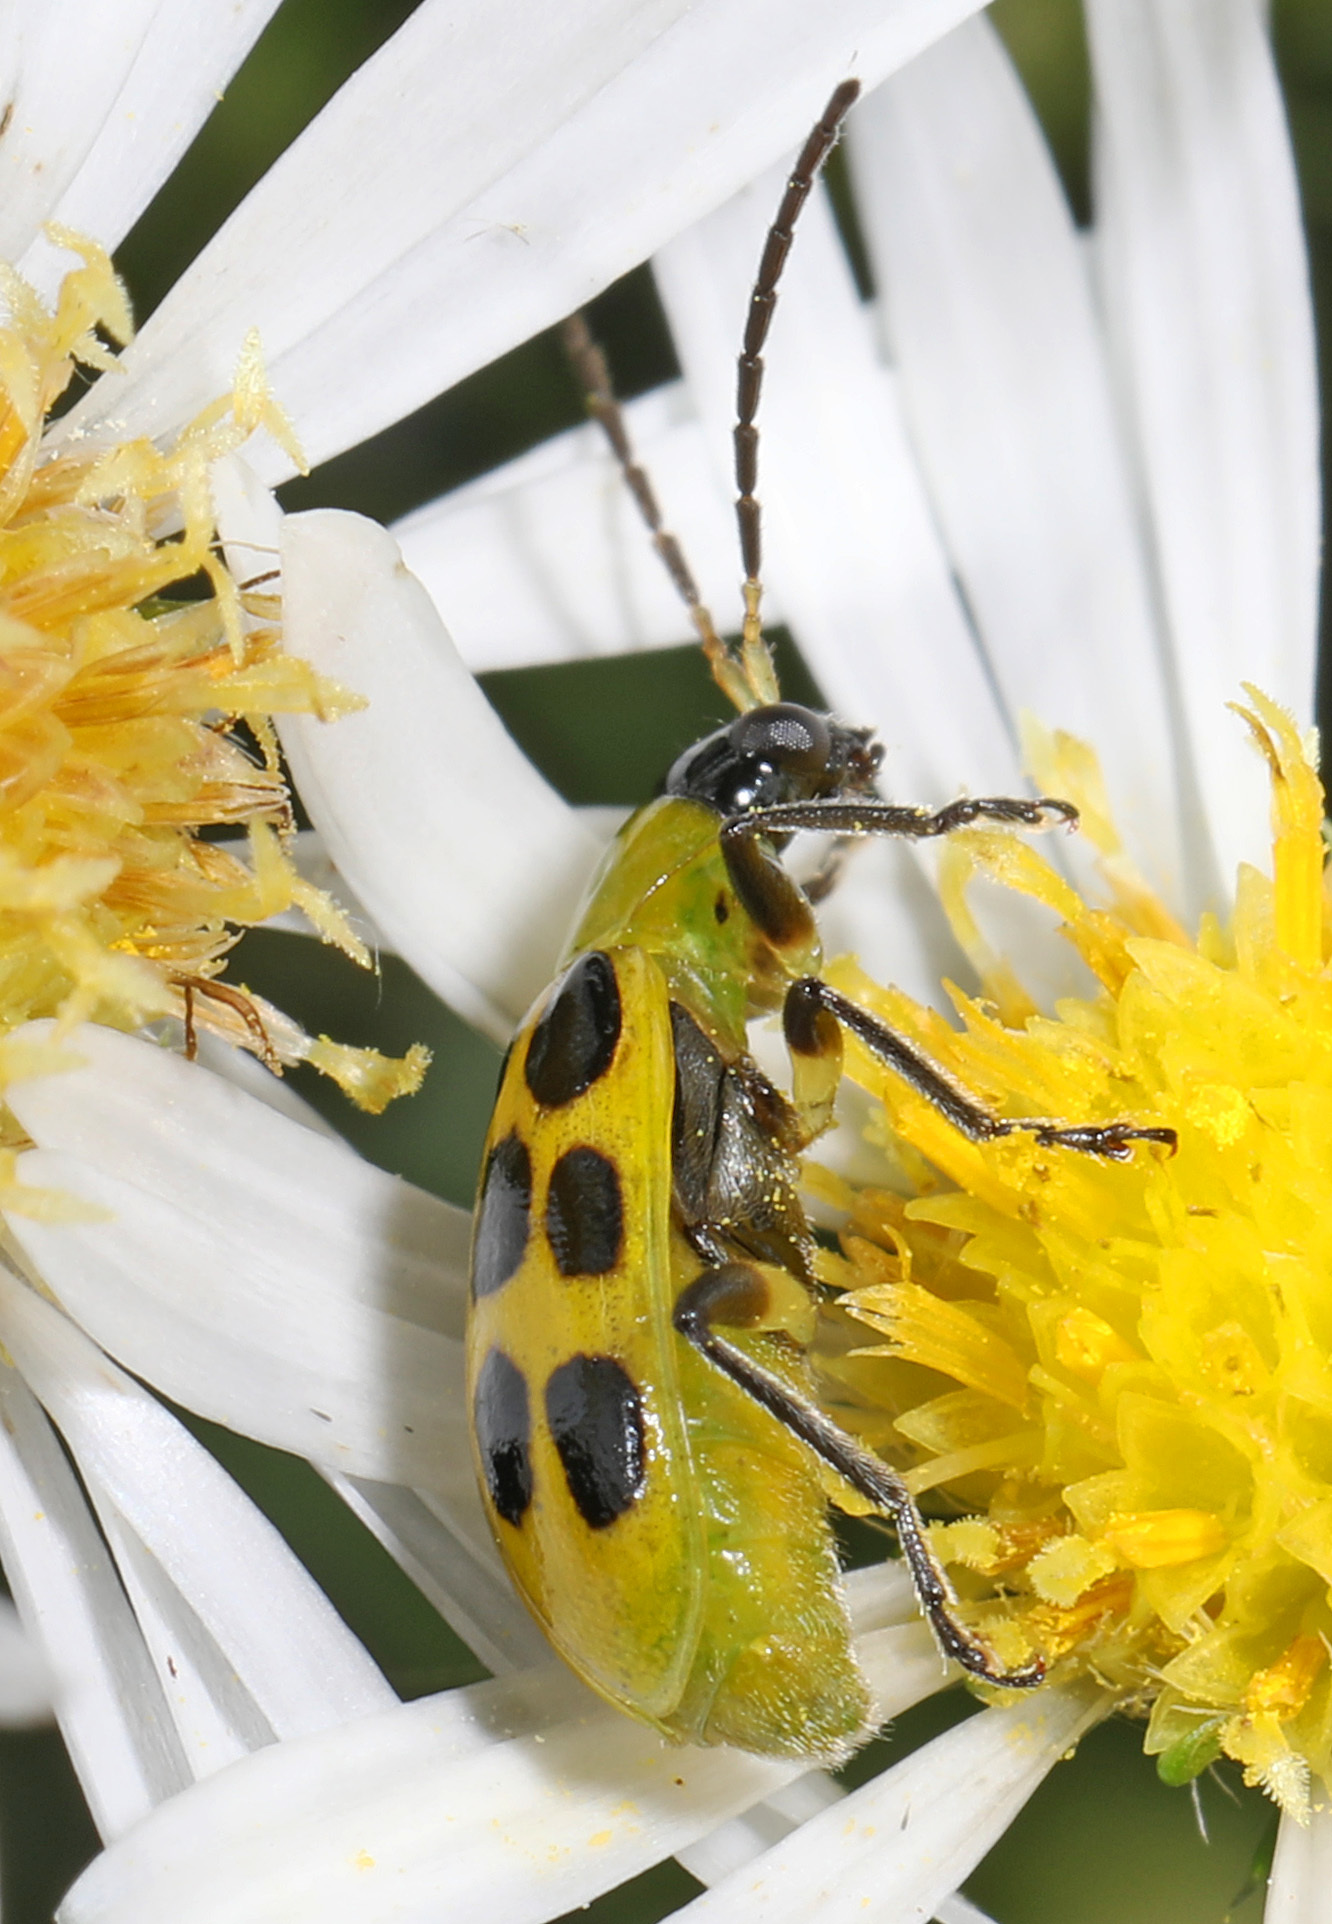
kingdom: Animalia
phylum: Arthropoda
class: Insecta
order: Coleoptera
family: Chrysomelidae
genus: Diabrotica
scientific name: Diabrotica undecimpunctata
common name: Spotted cucumber beetle
